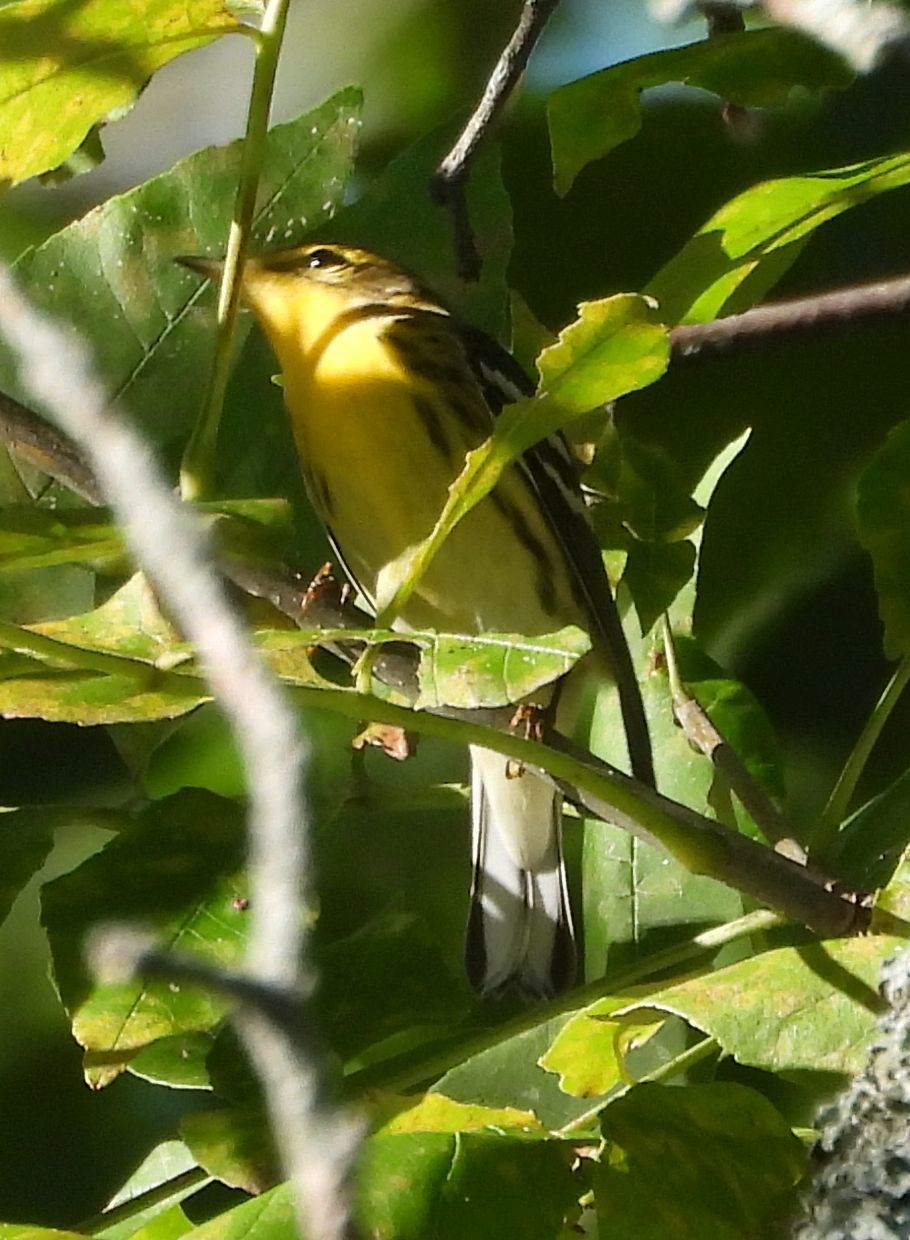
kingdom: Animalia
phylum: Chordata
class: Aves
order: Passeriformes
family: Parulidae
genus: Setophaga
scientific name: Setophaga fusca
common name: Blackburnian warbler
